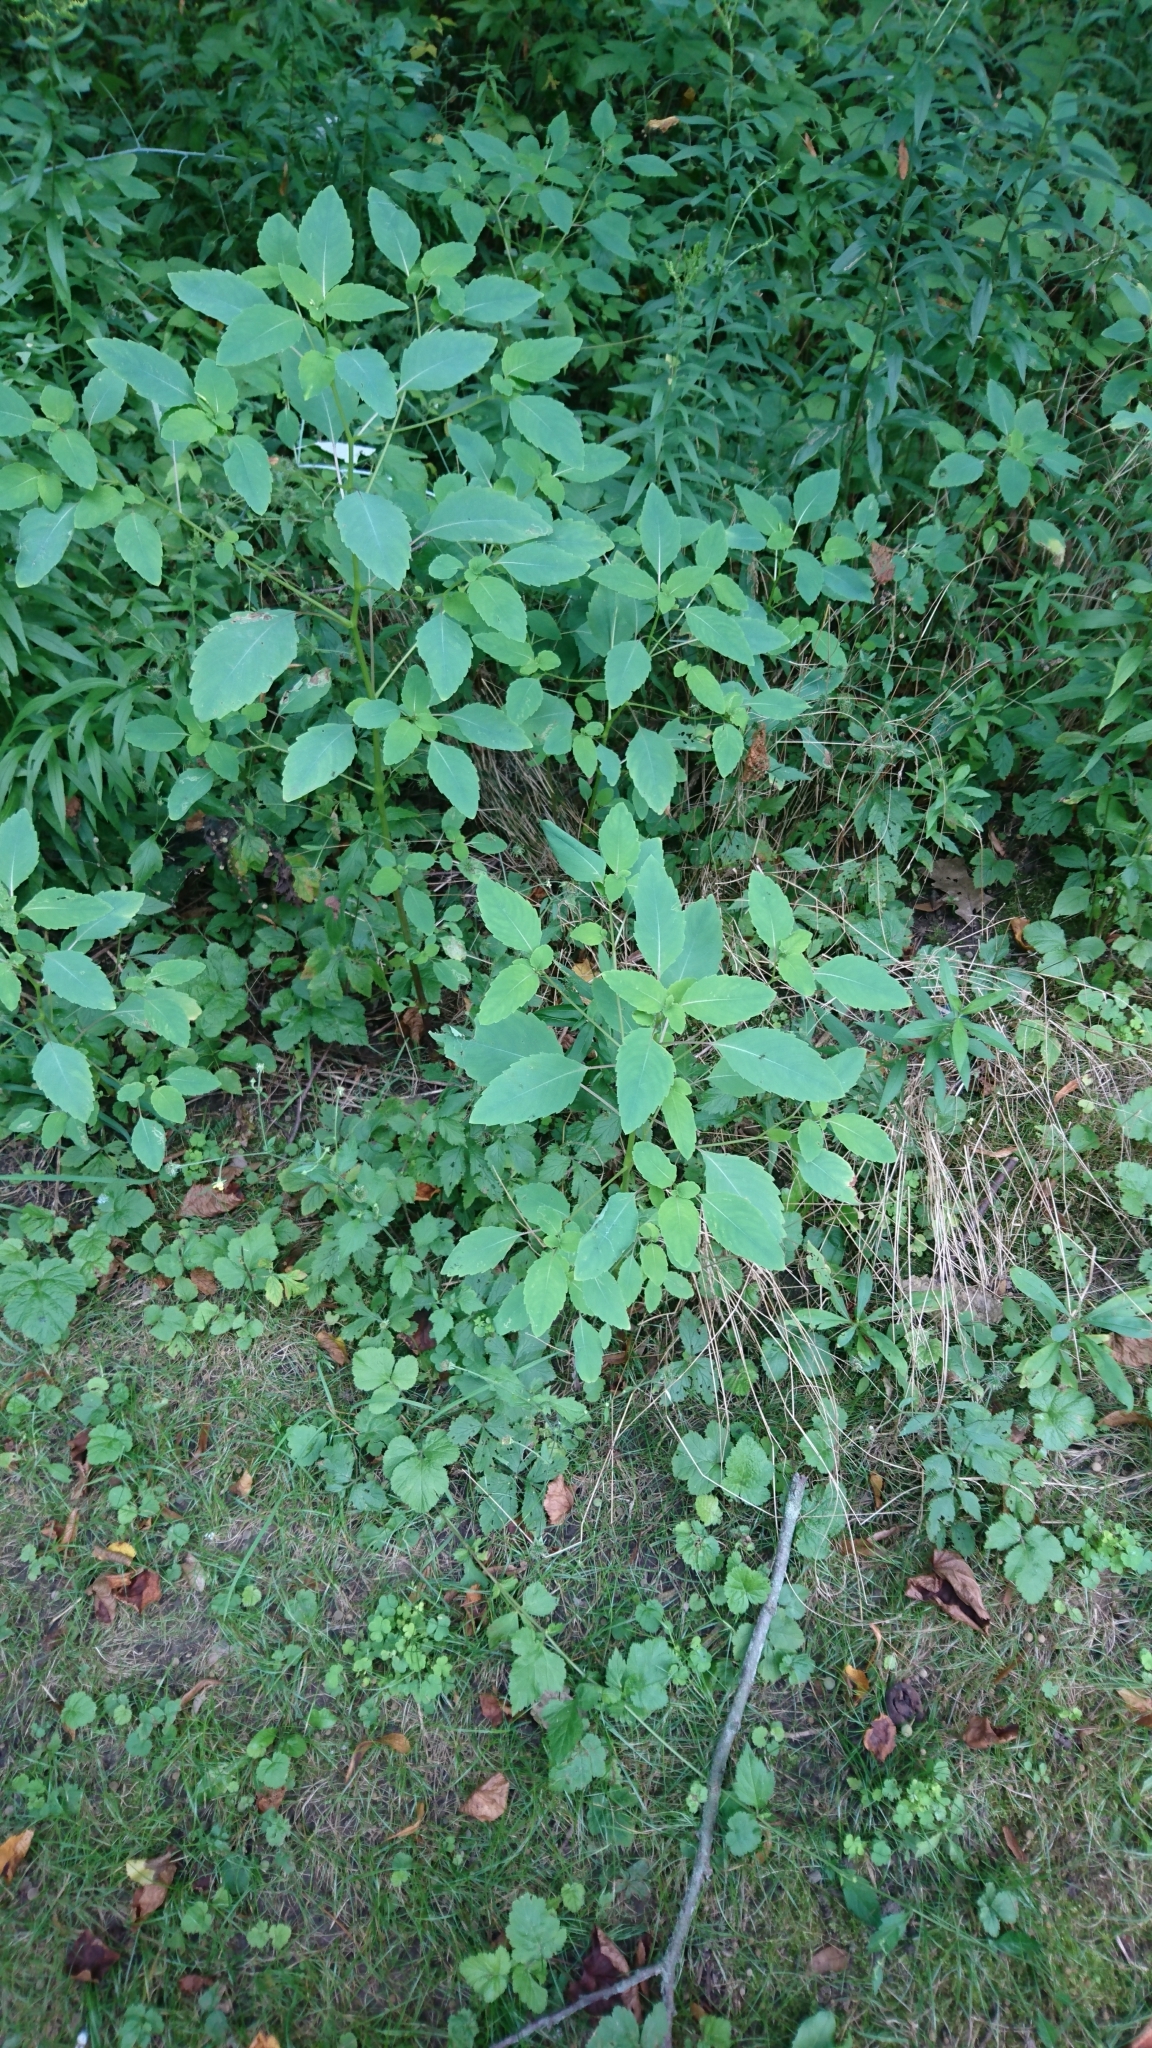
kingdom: Plantae
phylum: Tracheophyta
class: Magnoliopsida
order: Ericales
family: Balsaminaceae
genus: Impatiens
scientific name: Impatiens capensis
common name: Orange balsam
